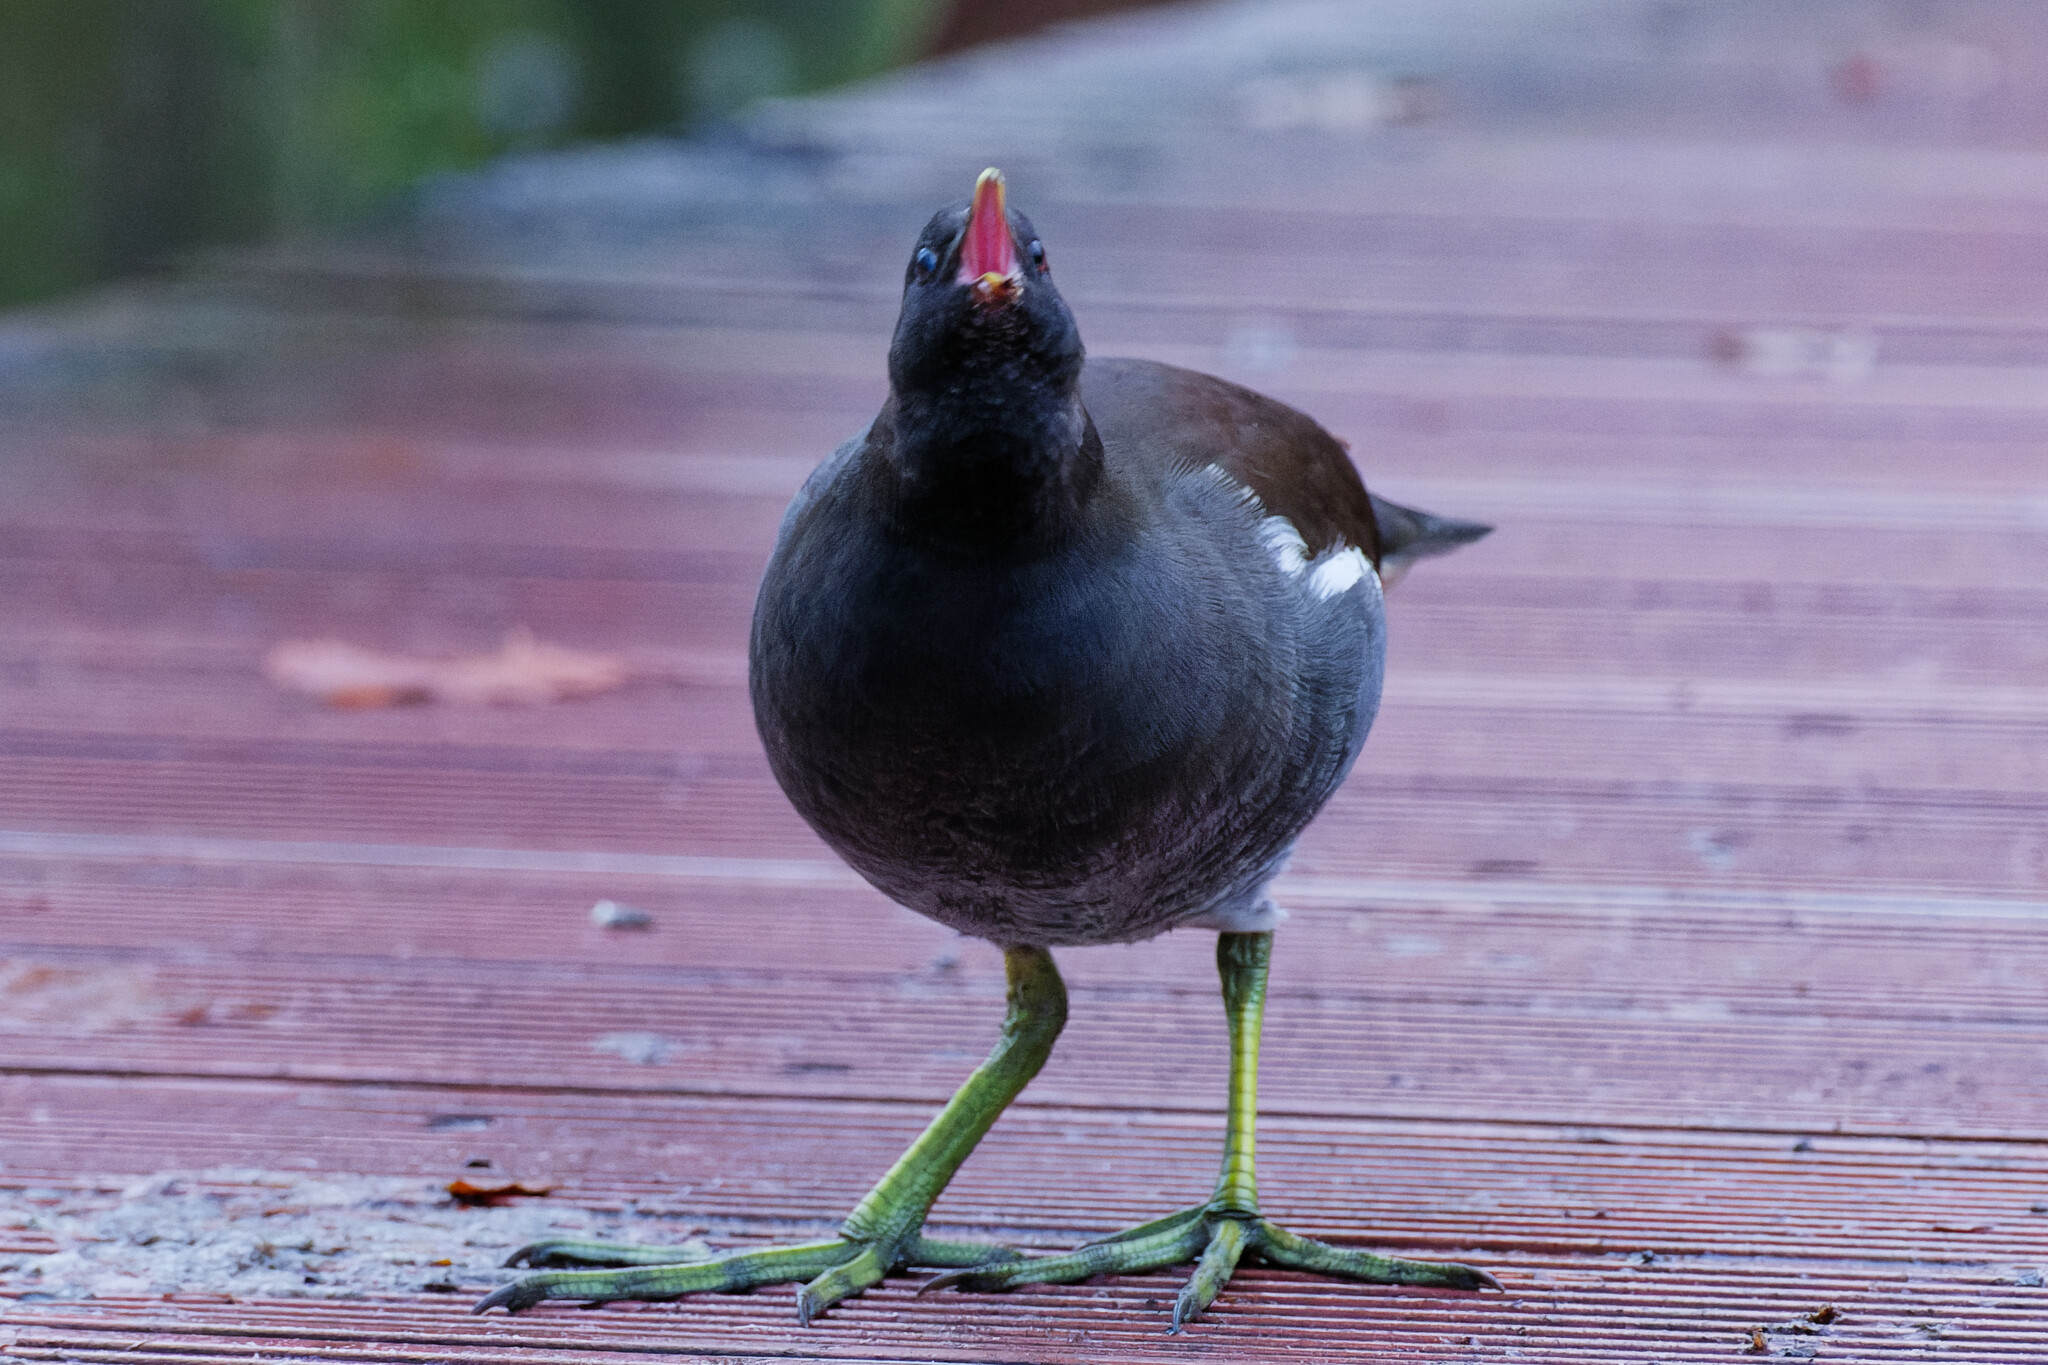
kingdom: Animalia
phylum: Chordata
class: Aves
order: Gruiformes
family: Rallidae
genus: Gallinula
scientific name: Gallinula chloropus
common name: Common moorhen
